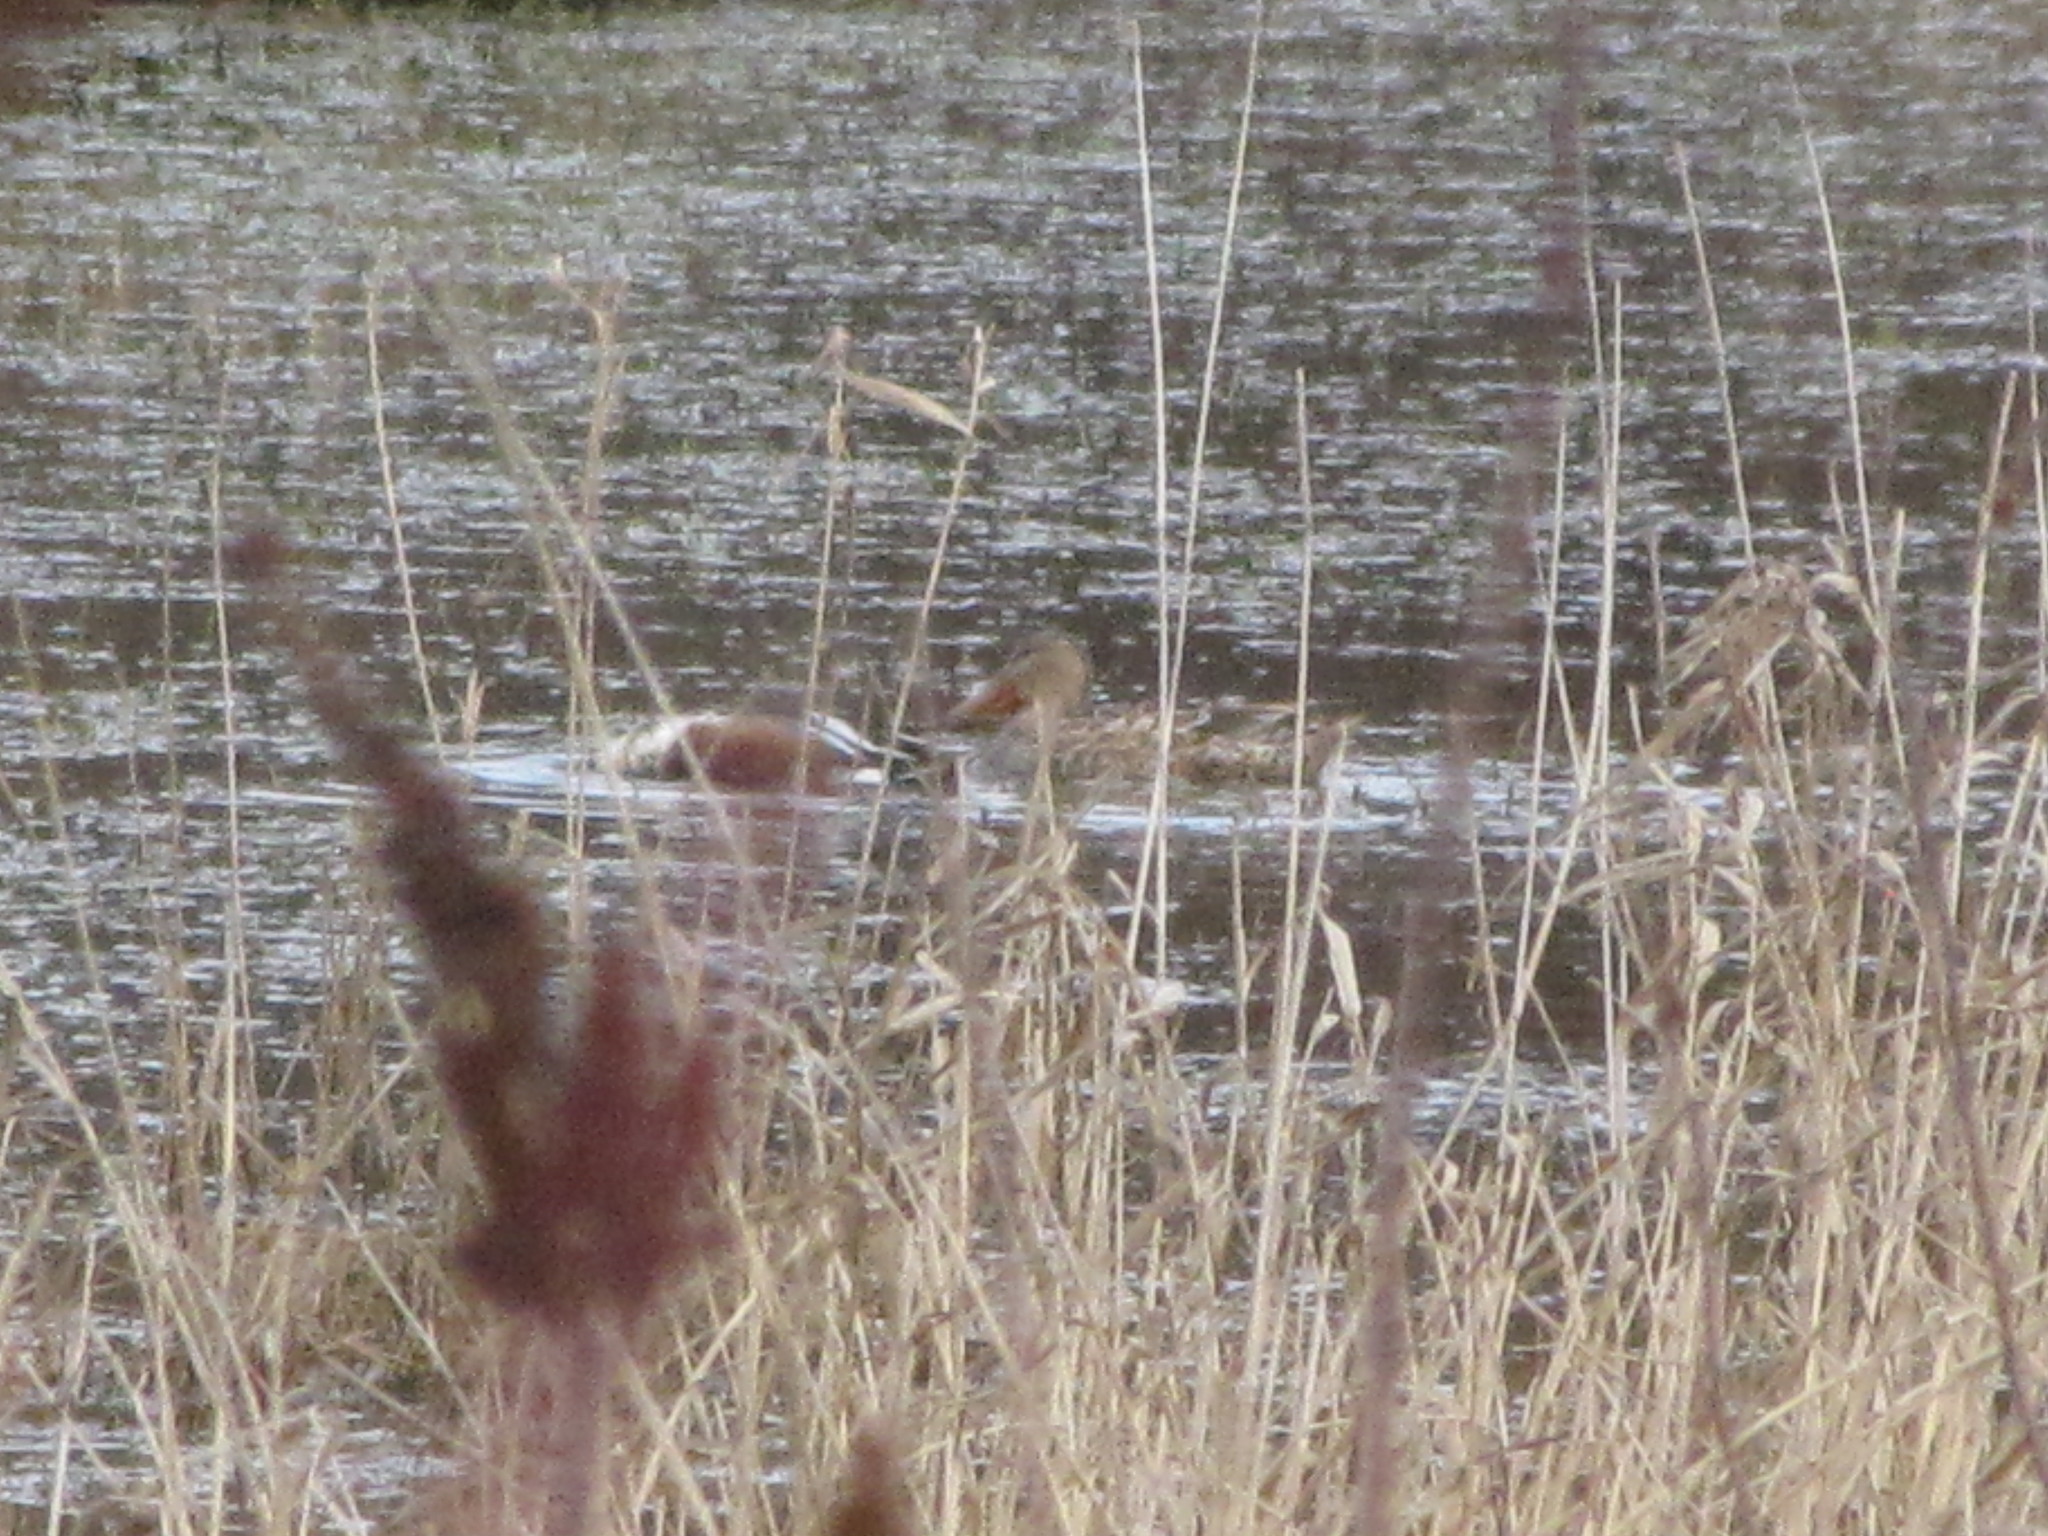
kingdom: Animalia
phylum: Chordata
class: Aves
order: Anseriformes
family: Anatidae
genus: Spatula
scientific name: Spatula clypeata
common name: Northern shoveler
